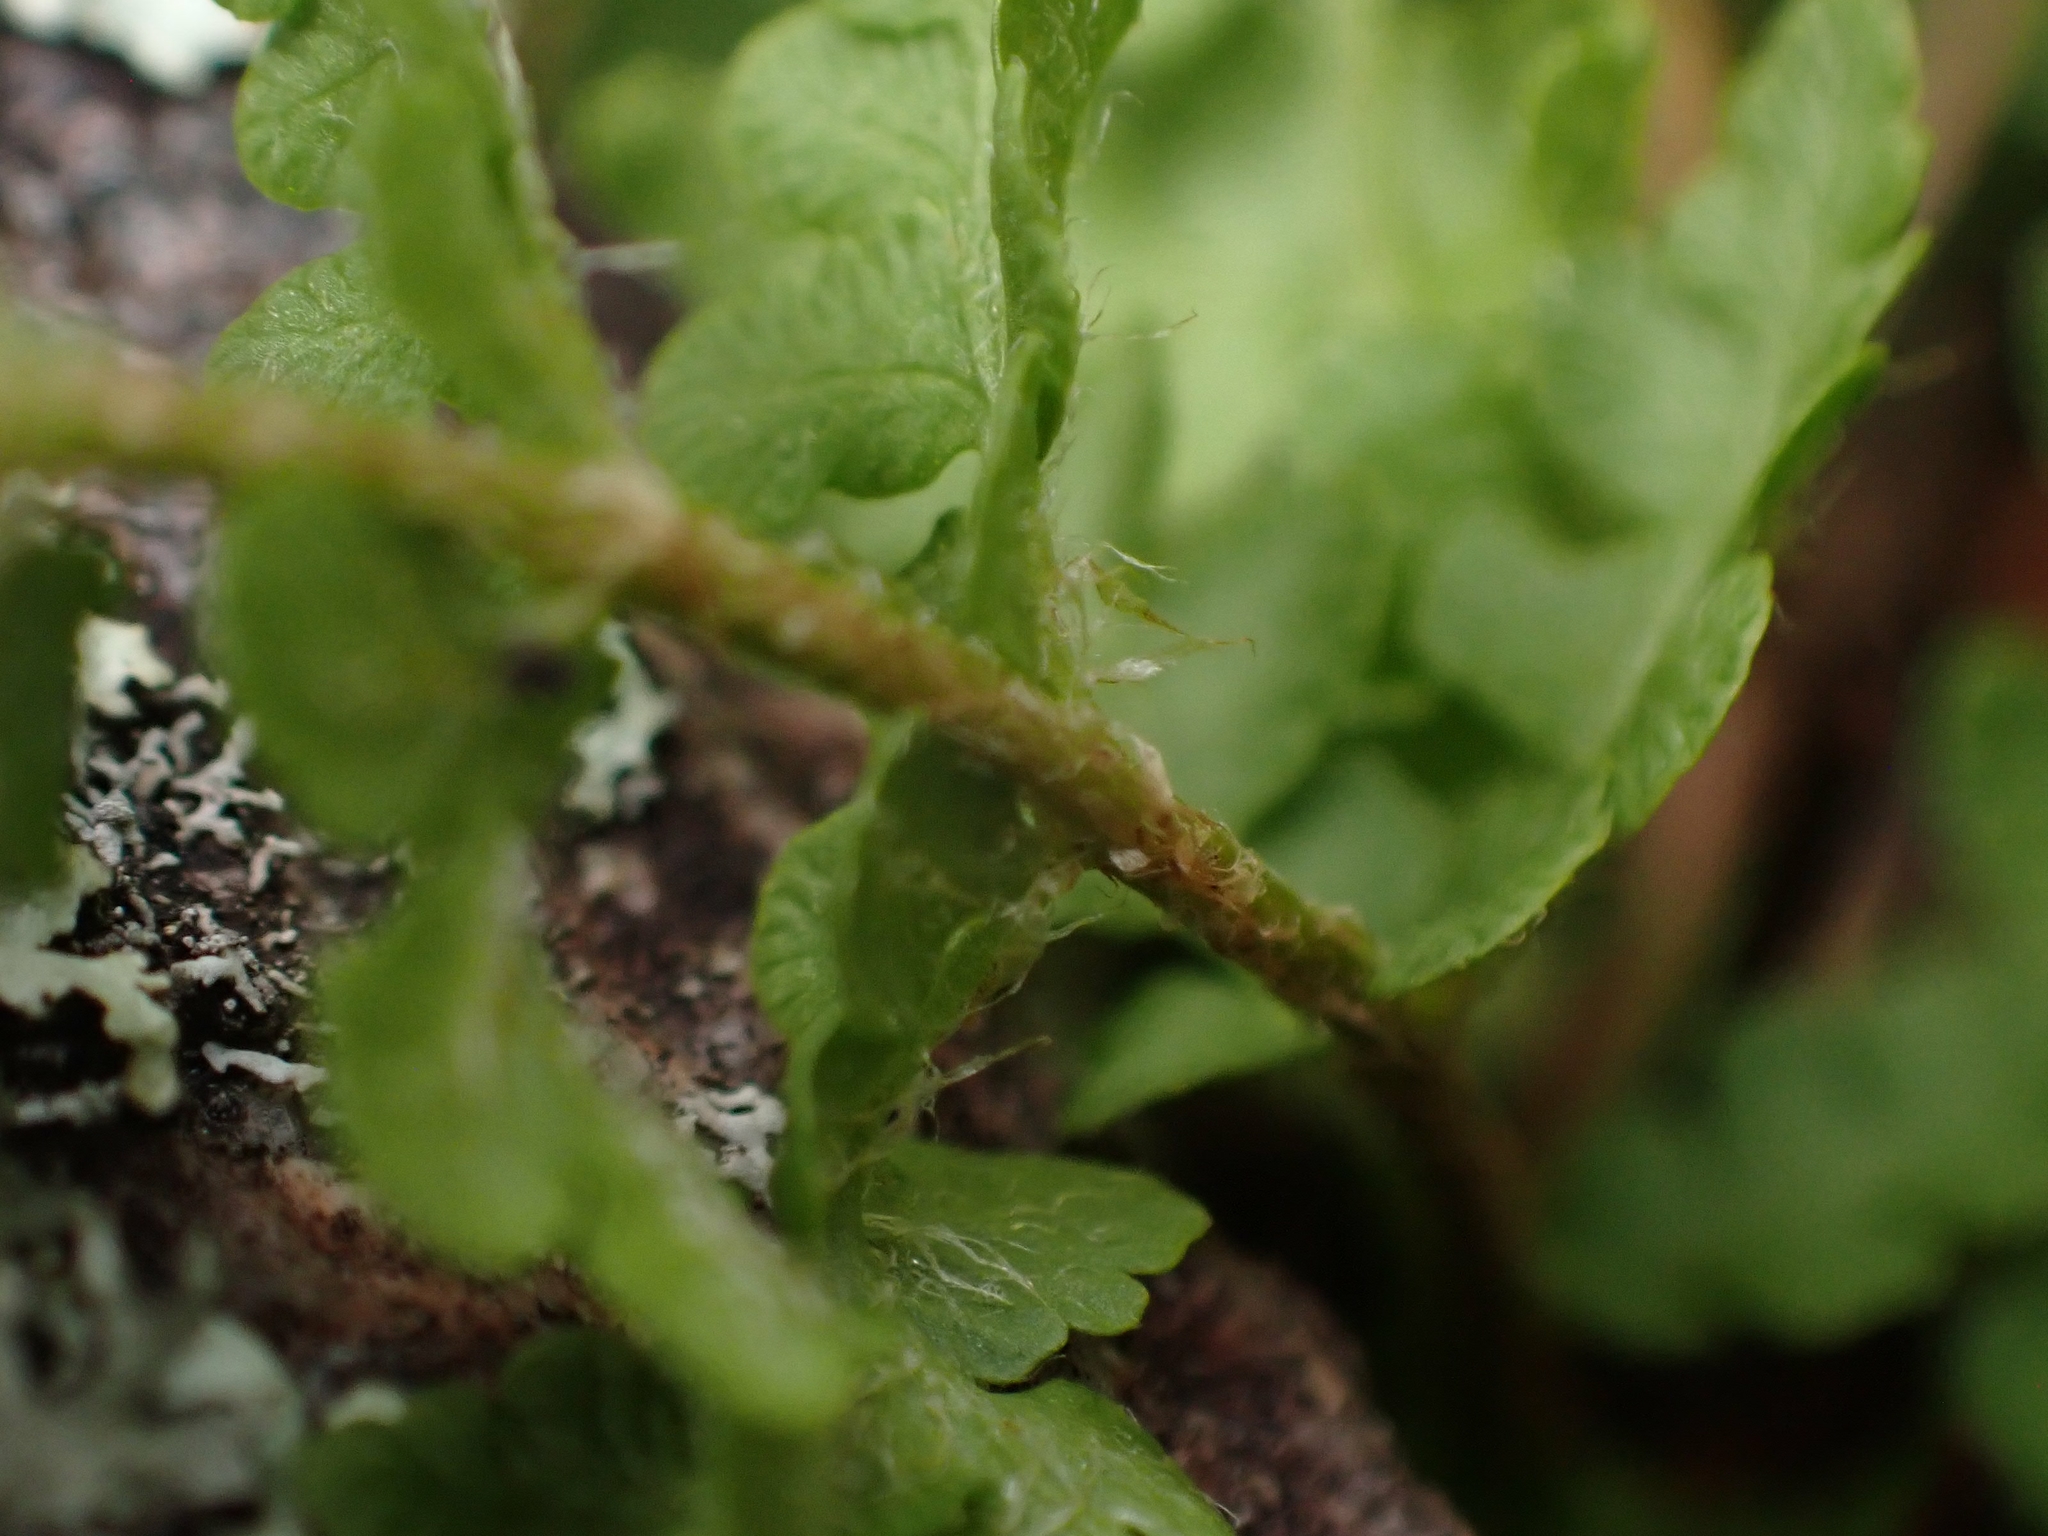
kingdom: Plantae
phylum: Tracheophyta
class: Polypodiopsida
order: Polypodiales
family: Woodsiaceae
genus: Woodsia
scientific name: Woodsia ilvensis
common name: Fragrant woodsia
